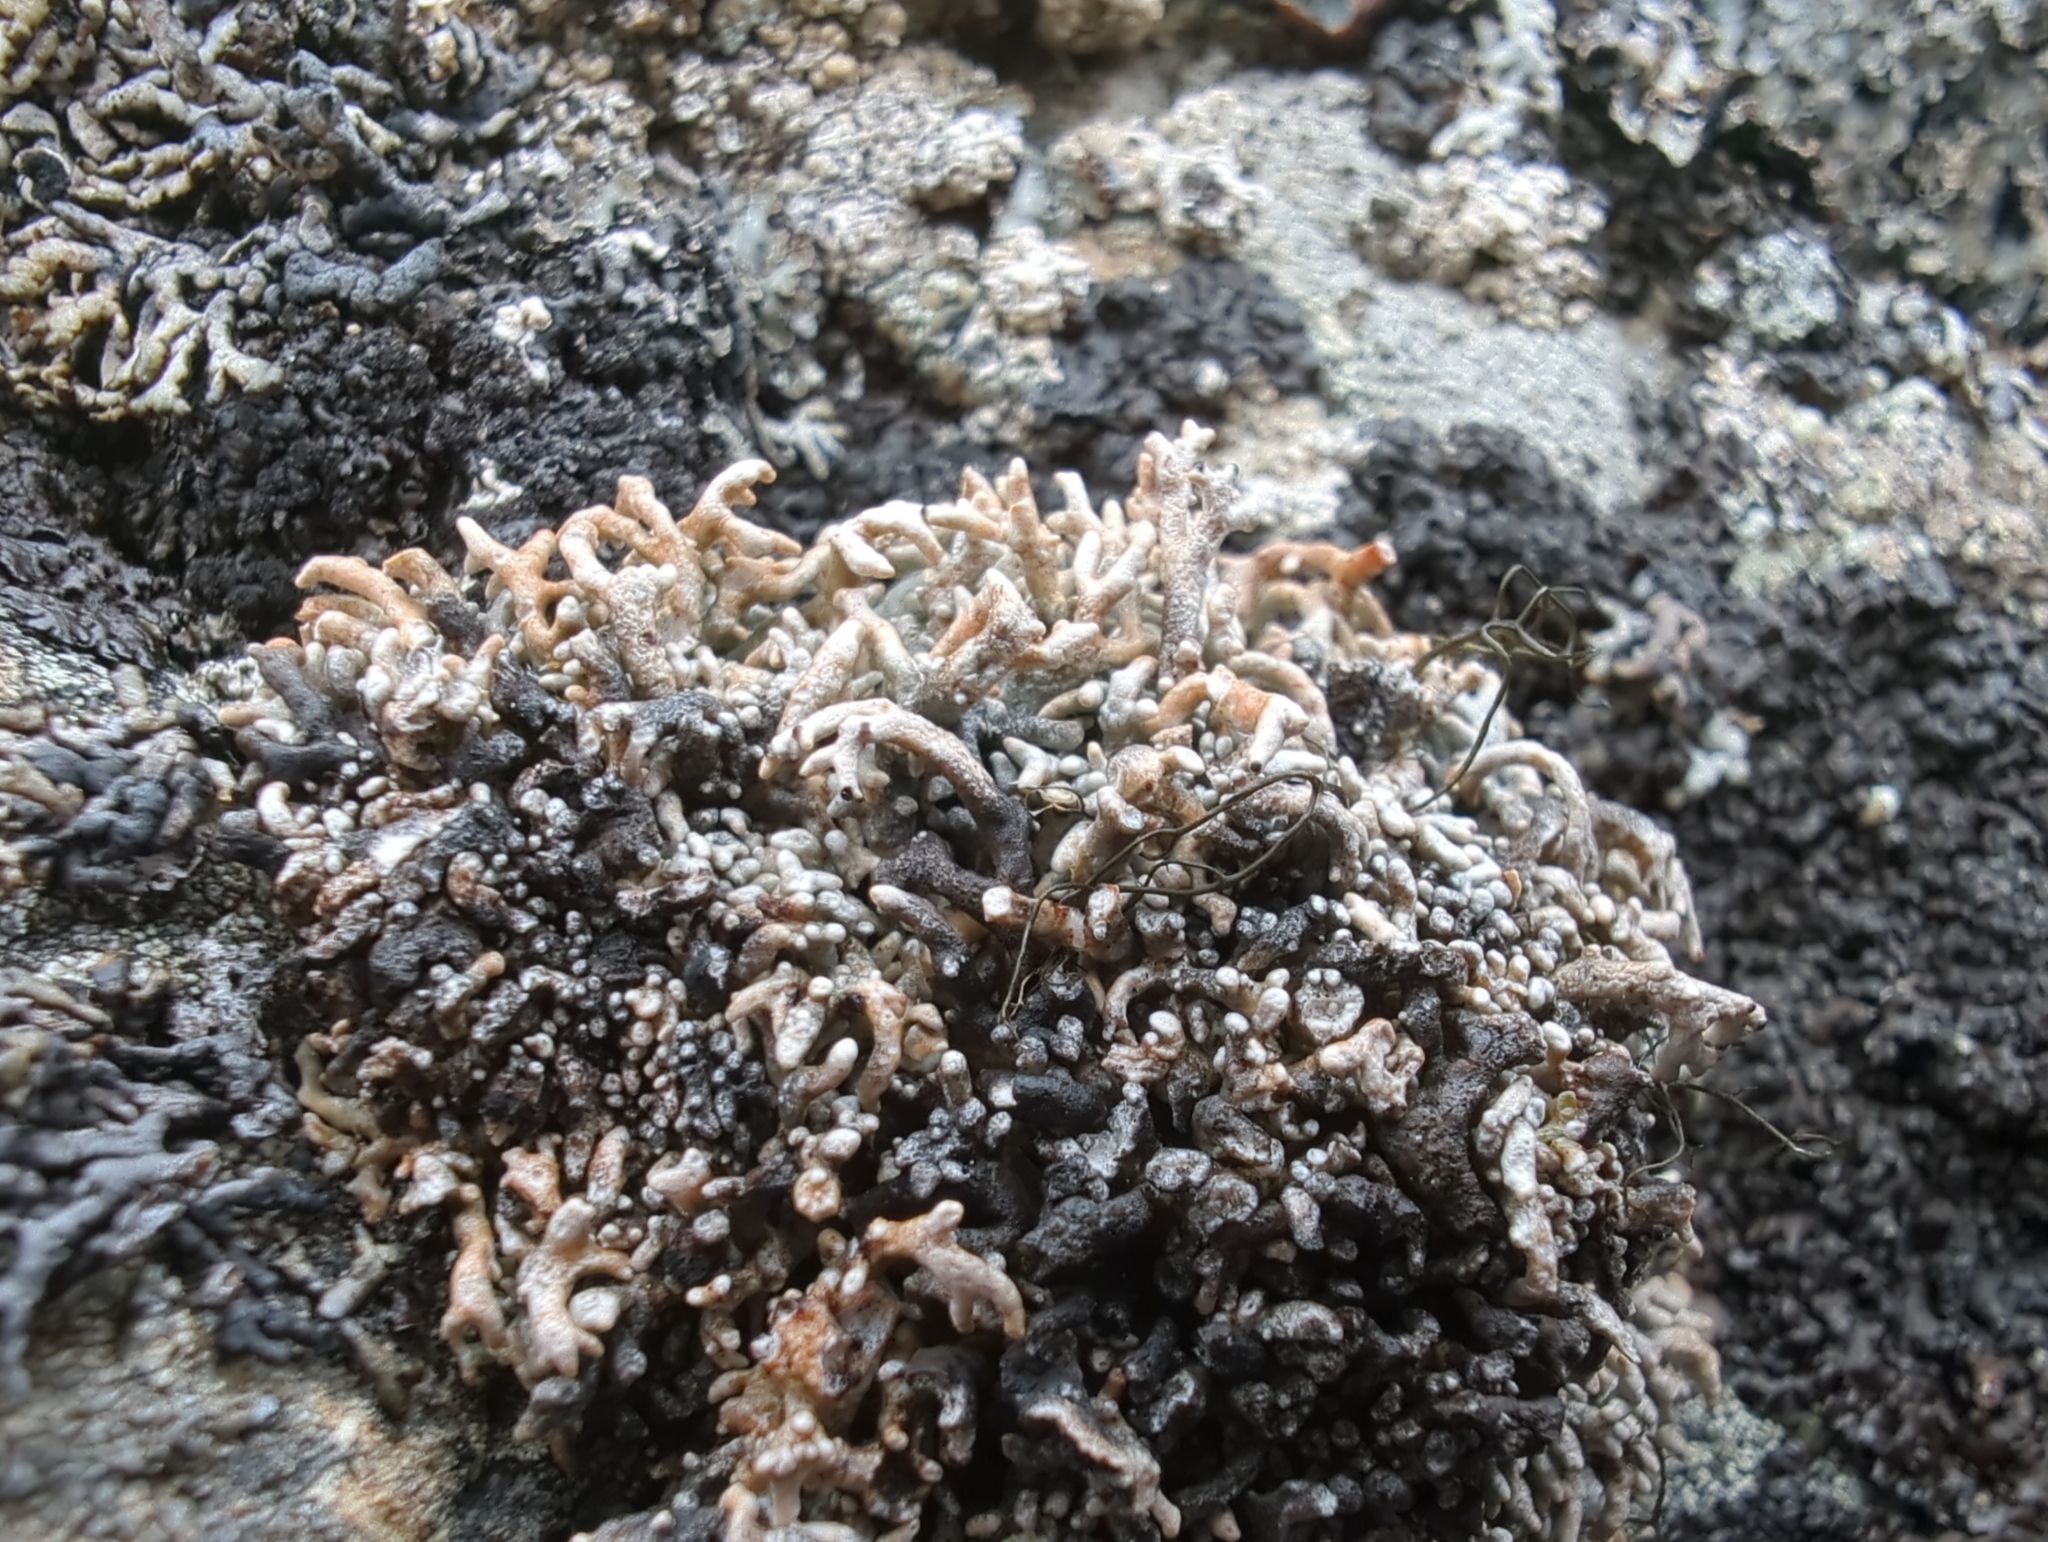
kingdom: Fungi
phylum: Ascomycota
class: Lecanoromycetes
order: Lecanorales
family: Sphaerophoraceae
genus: Sphaerophorus
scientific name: Sphaerophorus fragilis
